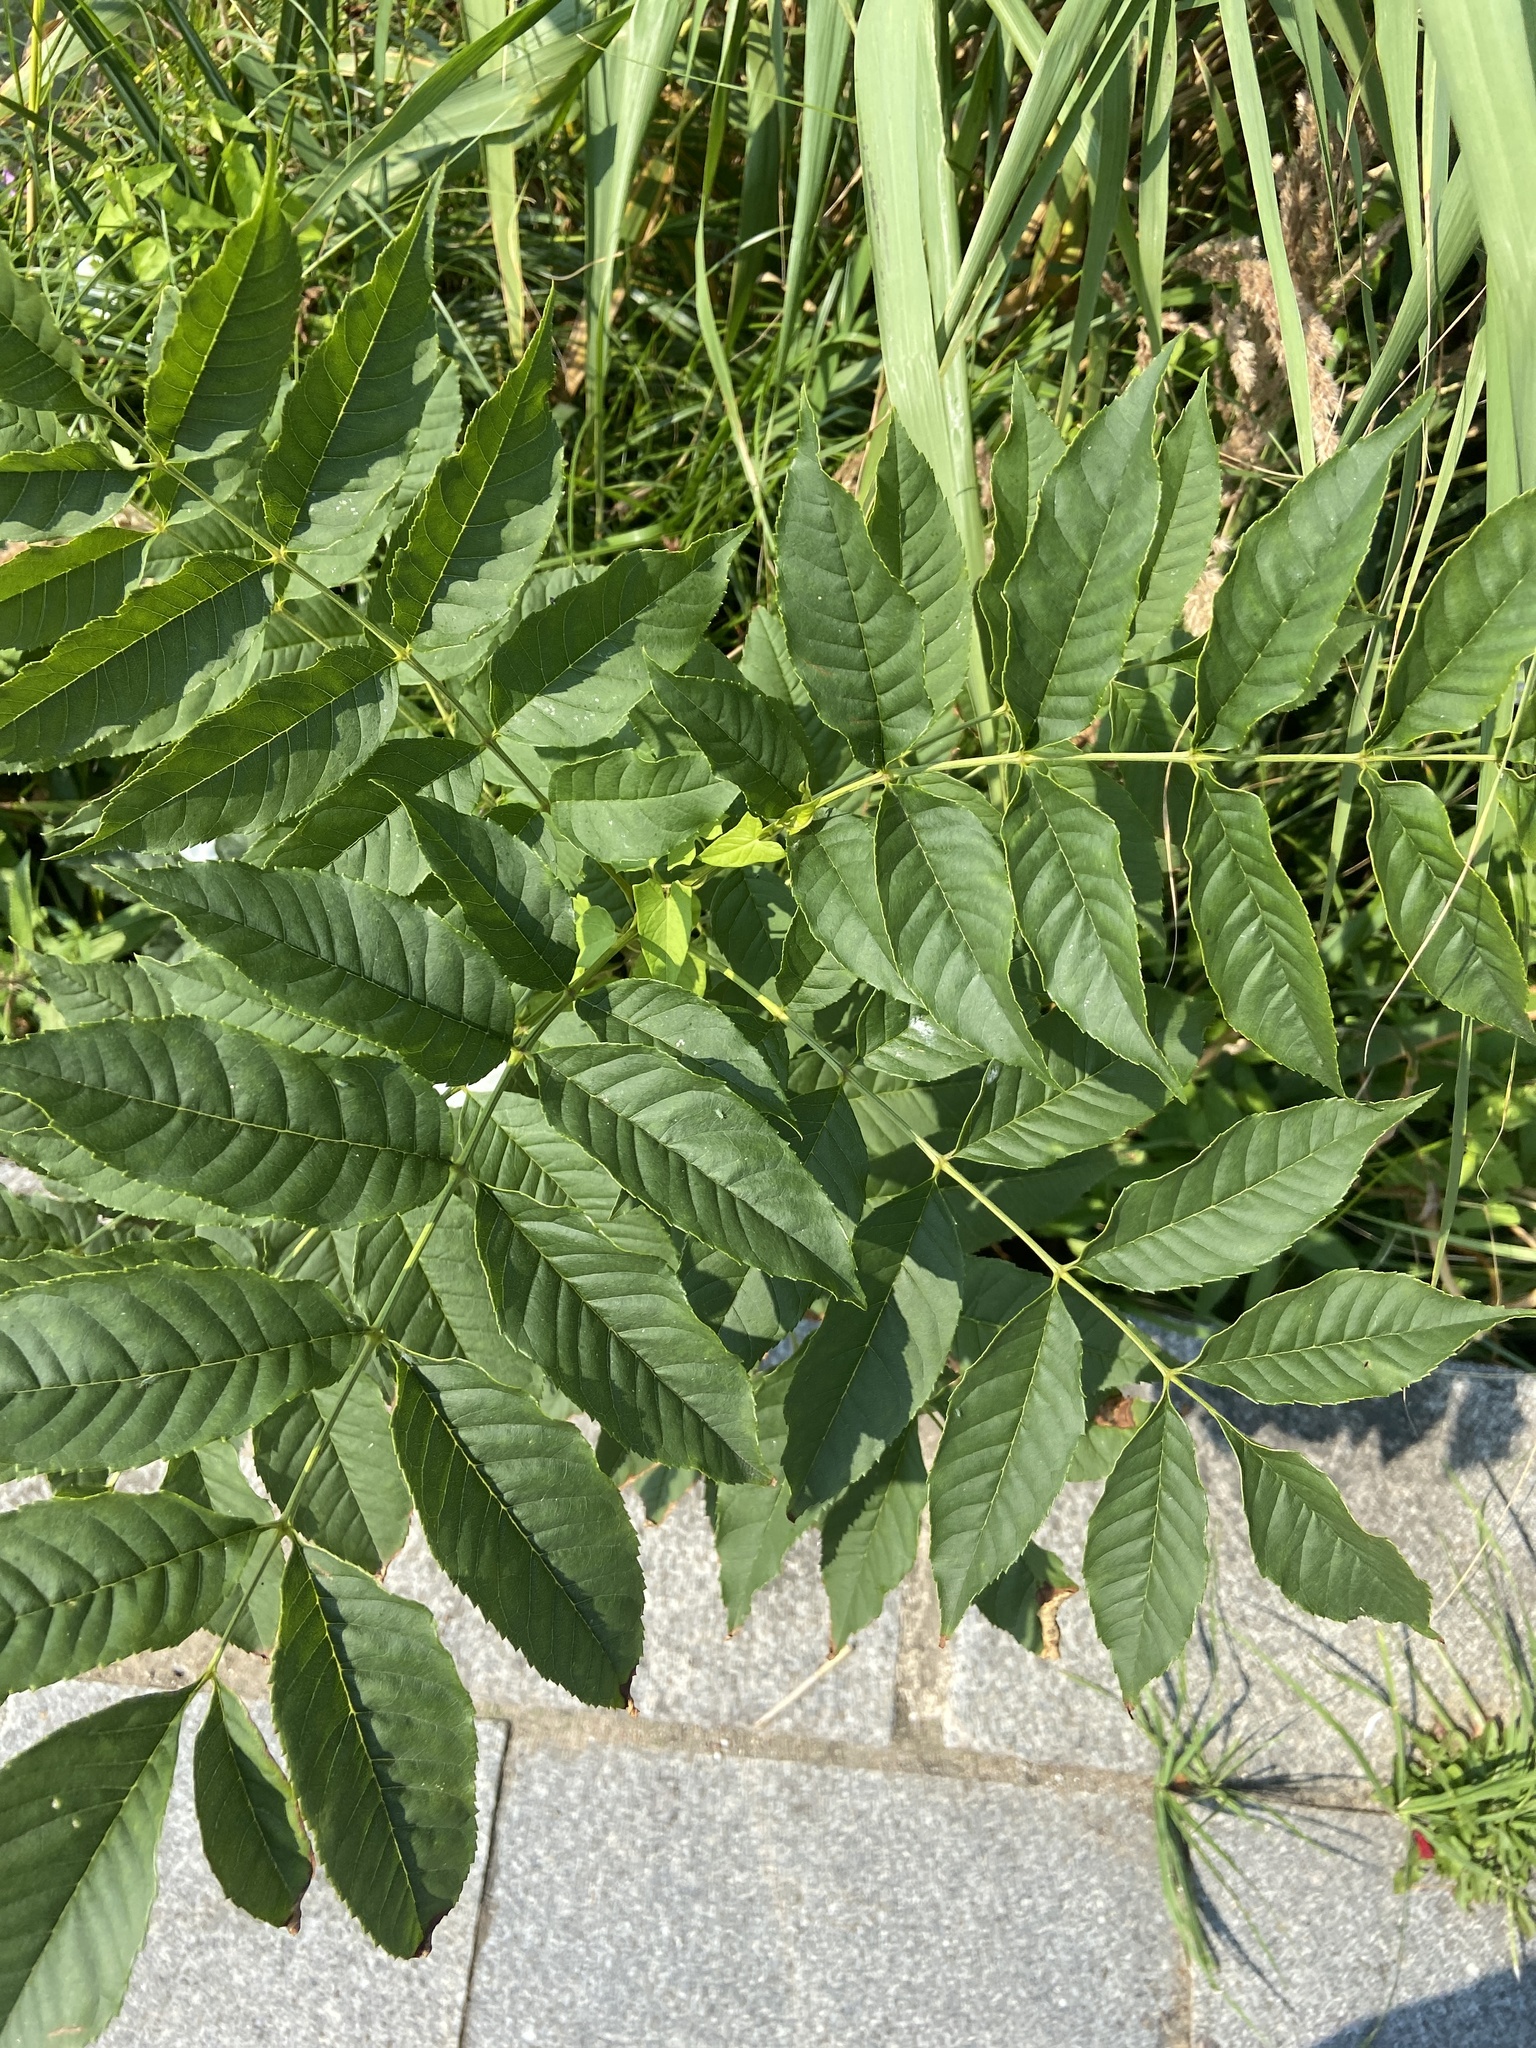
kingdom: Plantae
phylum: Tracheophyta
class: Magnoliopsida
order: Lamiales
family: Oleaceae
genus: Fraxinus
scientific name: Fraxinus excelsior
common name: European ash
